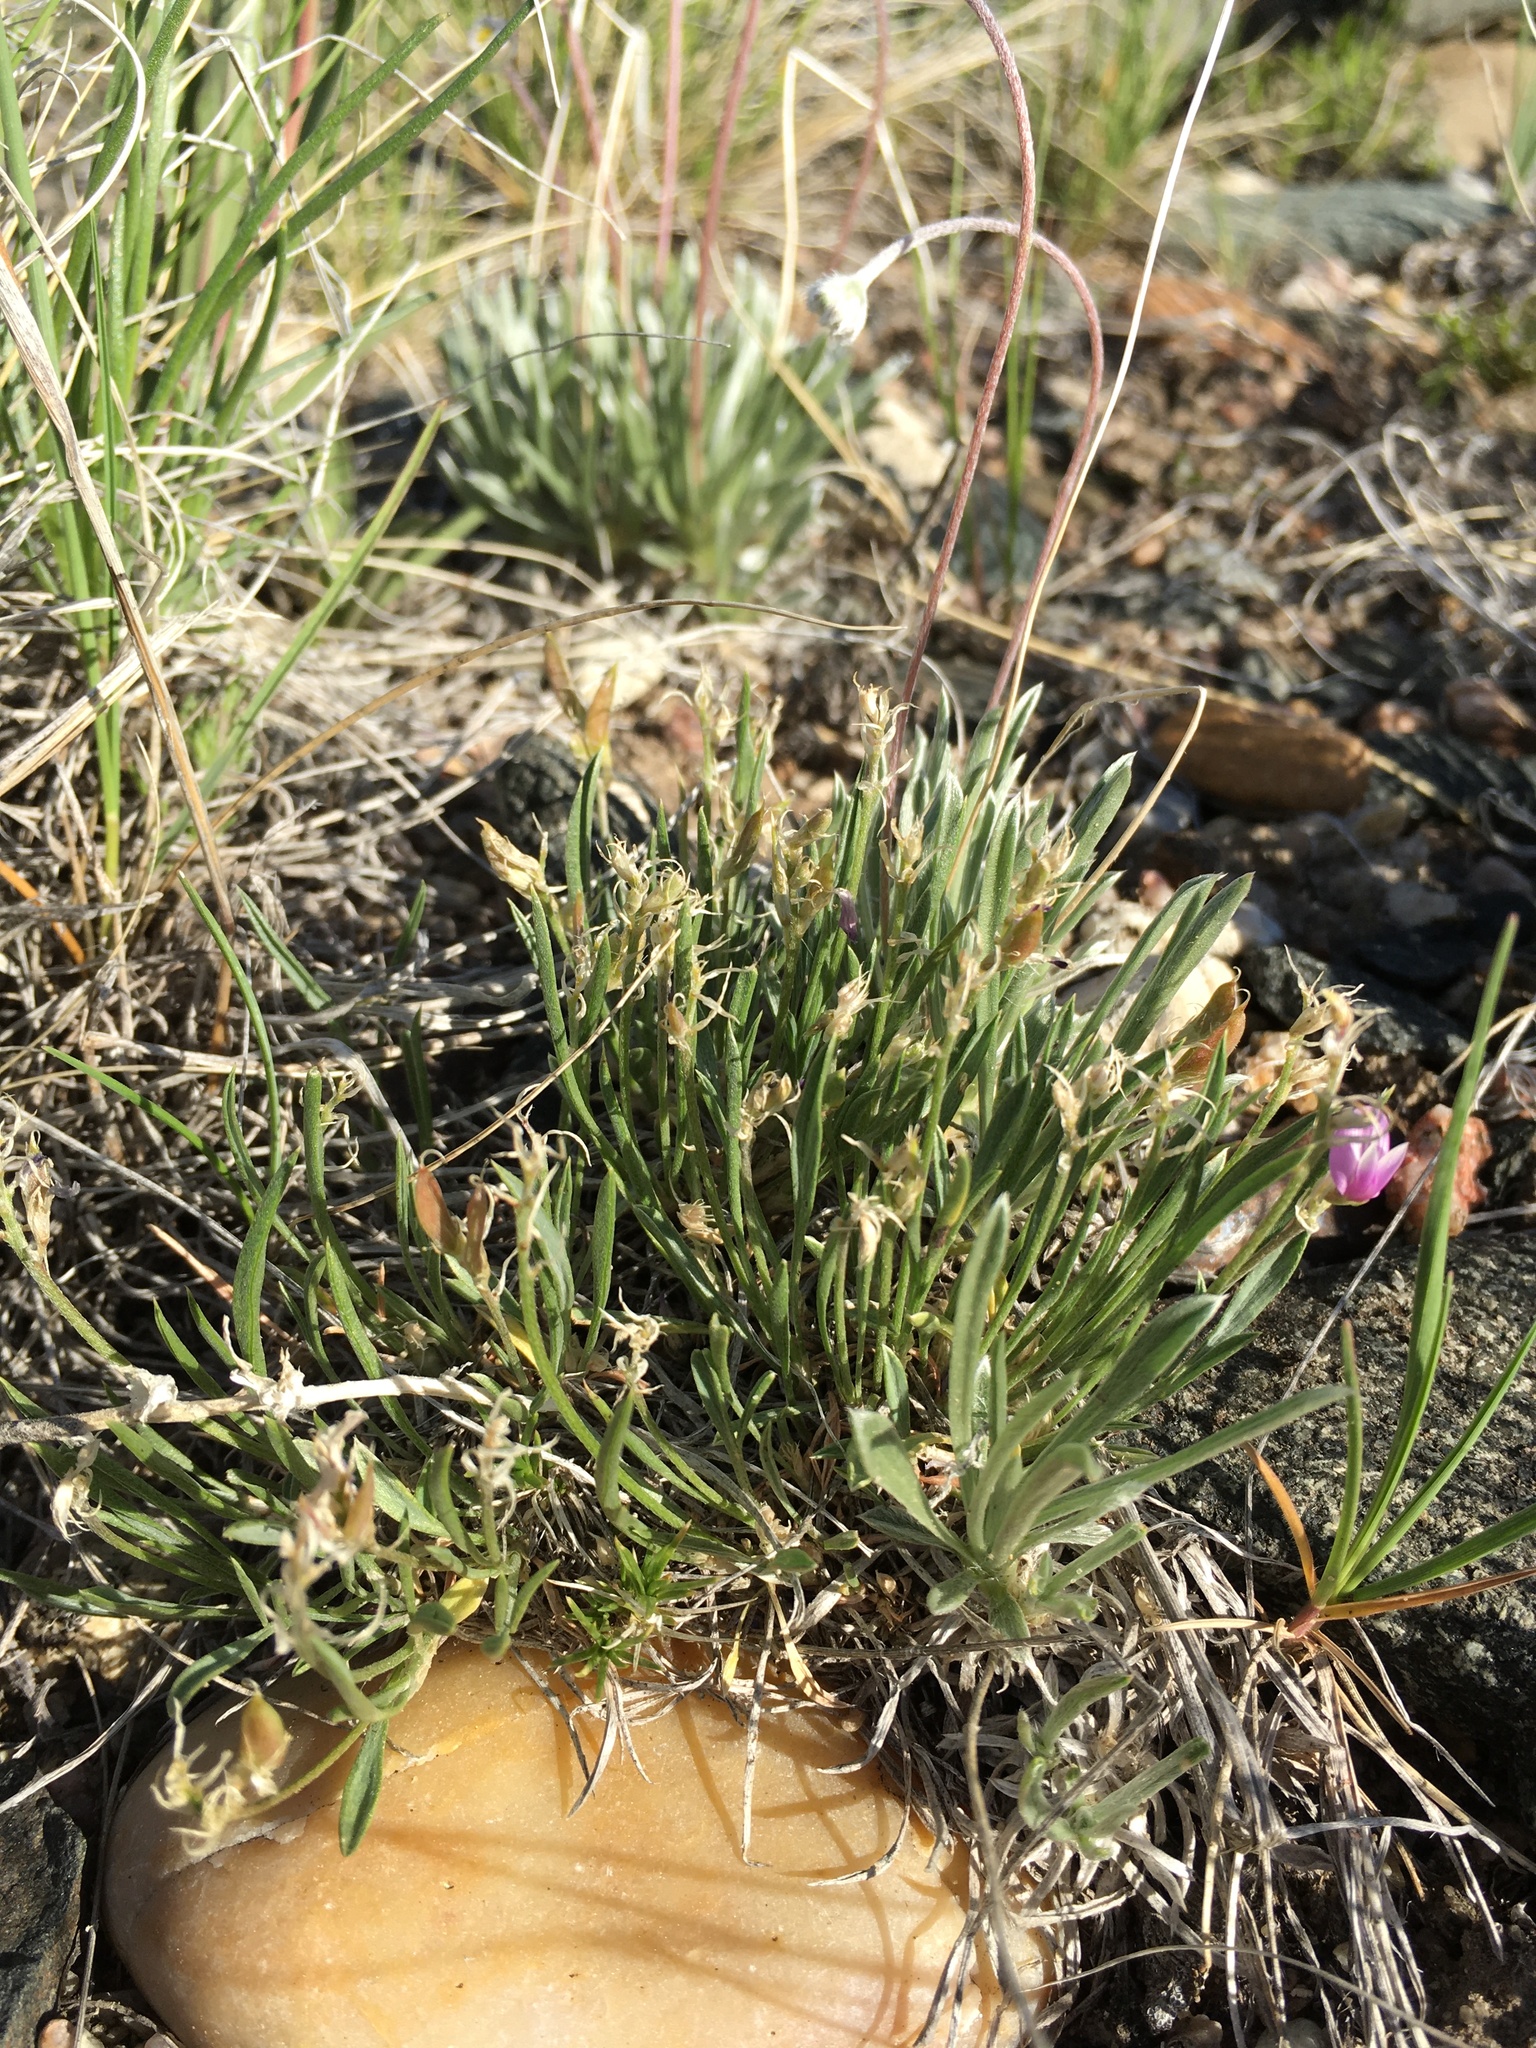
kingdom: Plantae
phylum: Tracheophyta
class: Magnoliopsida
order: Fabales
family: Fabaceae
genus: Astragalus
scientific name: Astragalus spatulatus
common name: Draba milk-vetch
